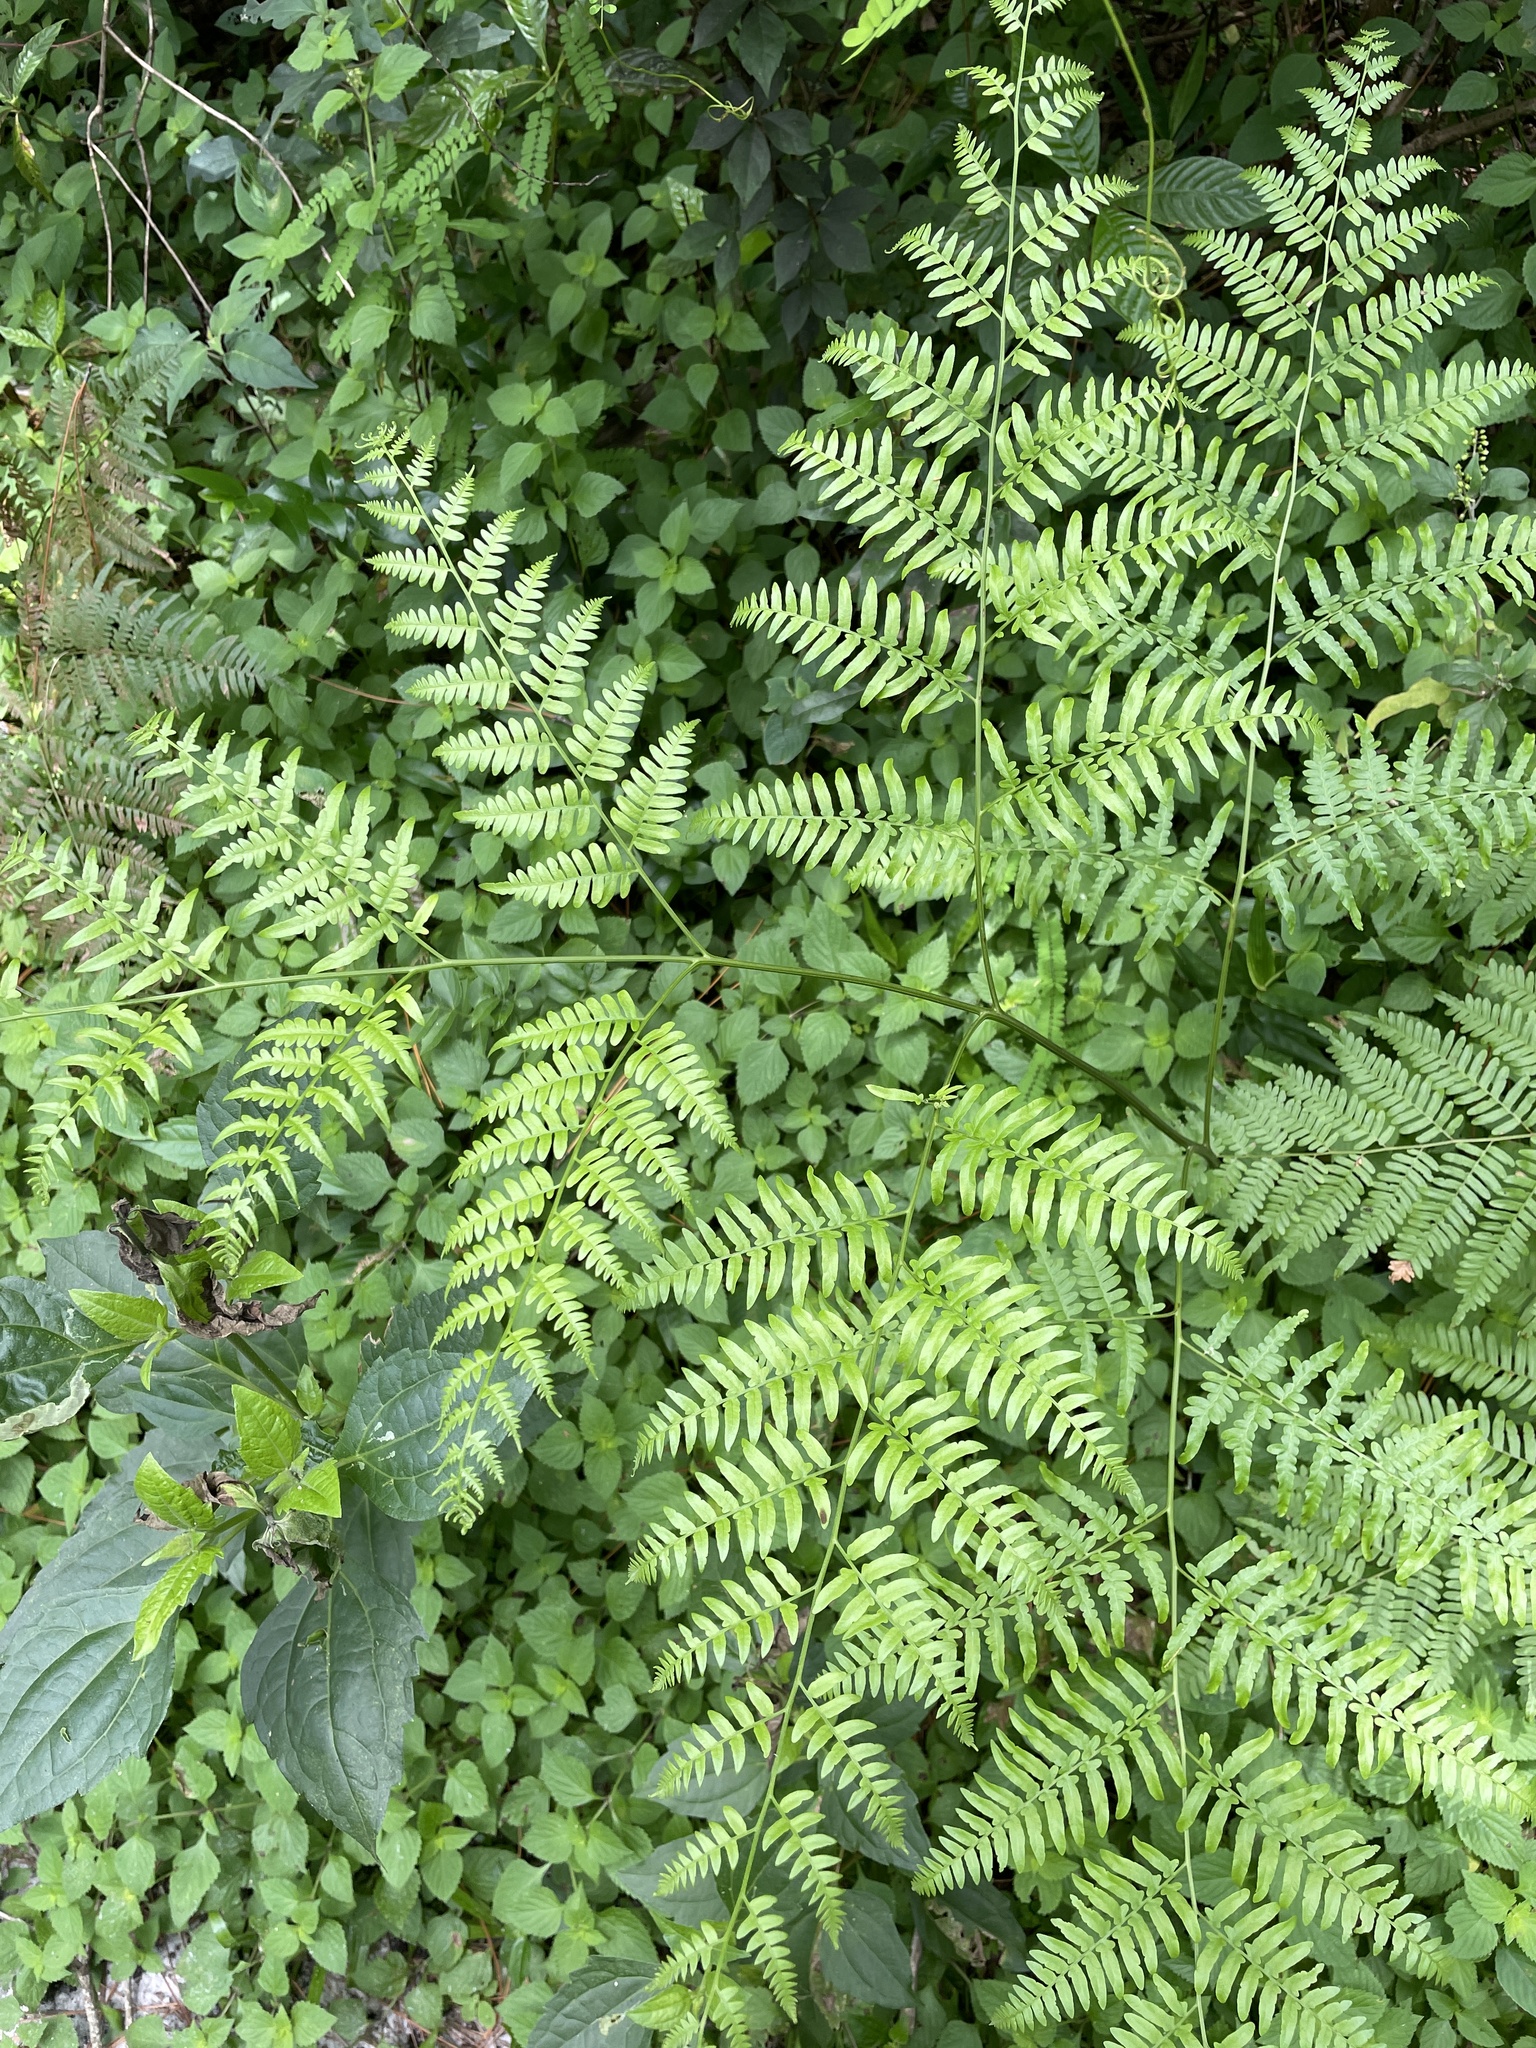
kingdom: Plantae
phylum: Tracheophyta
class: Polypodiopsida
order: Polypodiales
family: Dennstaedtiaceae
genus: Pteridium
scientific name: Pteridium
